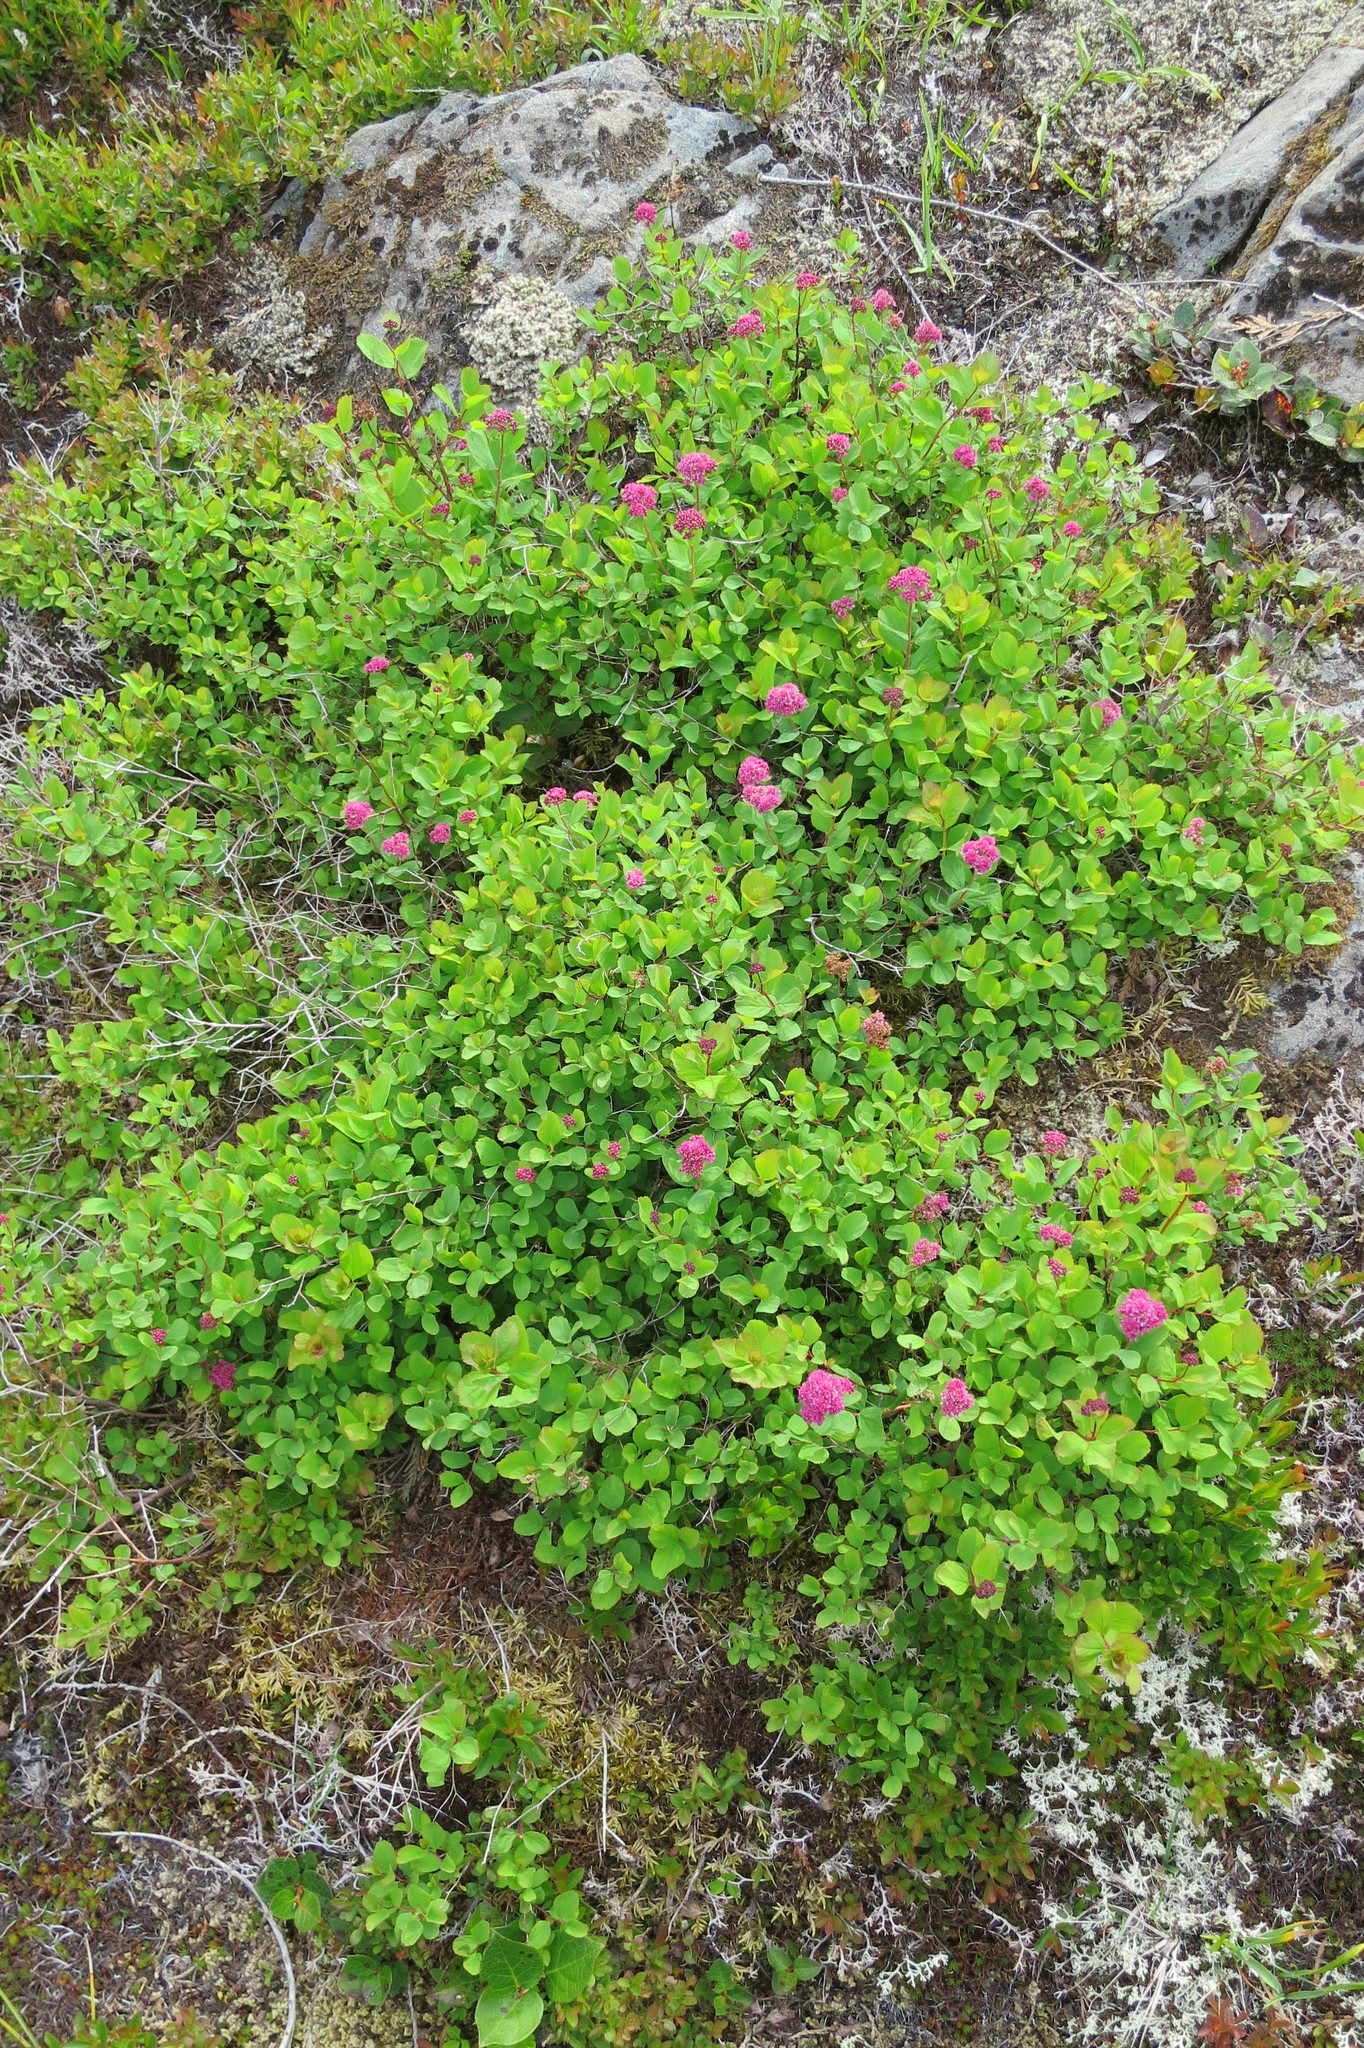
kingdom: Plantae
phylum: Tracheophyta
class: Magnoliopsida
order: Rosales
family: Rosaceae
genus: Spiraea
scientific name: Spiraea splendens
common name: Subalpine meadowsweet
